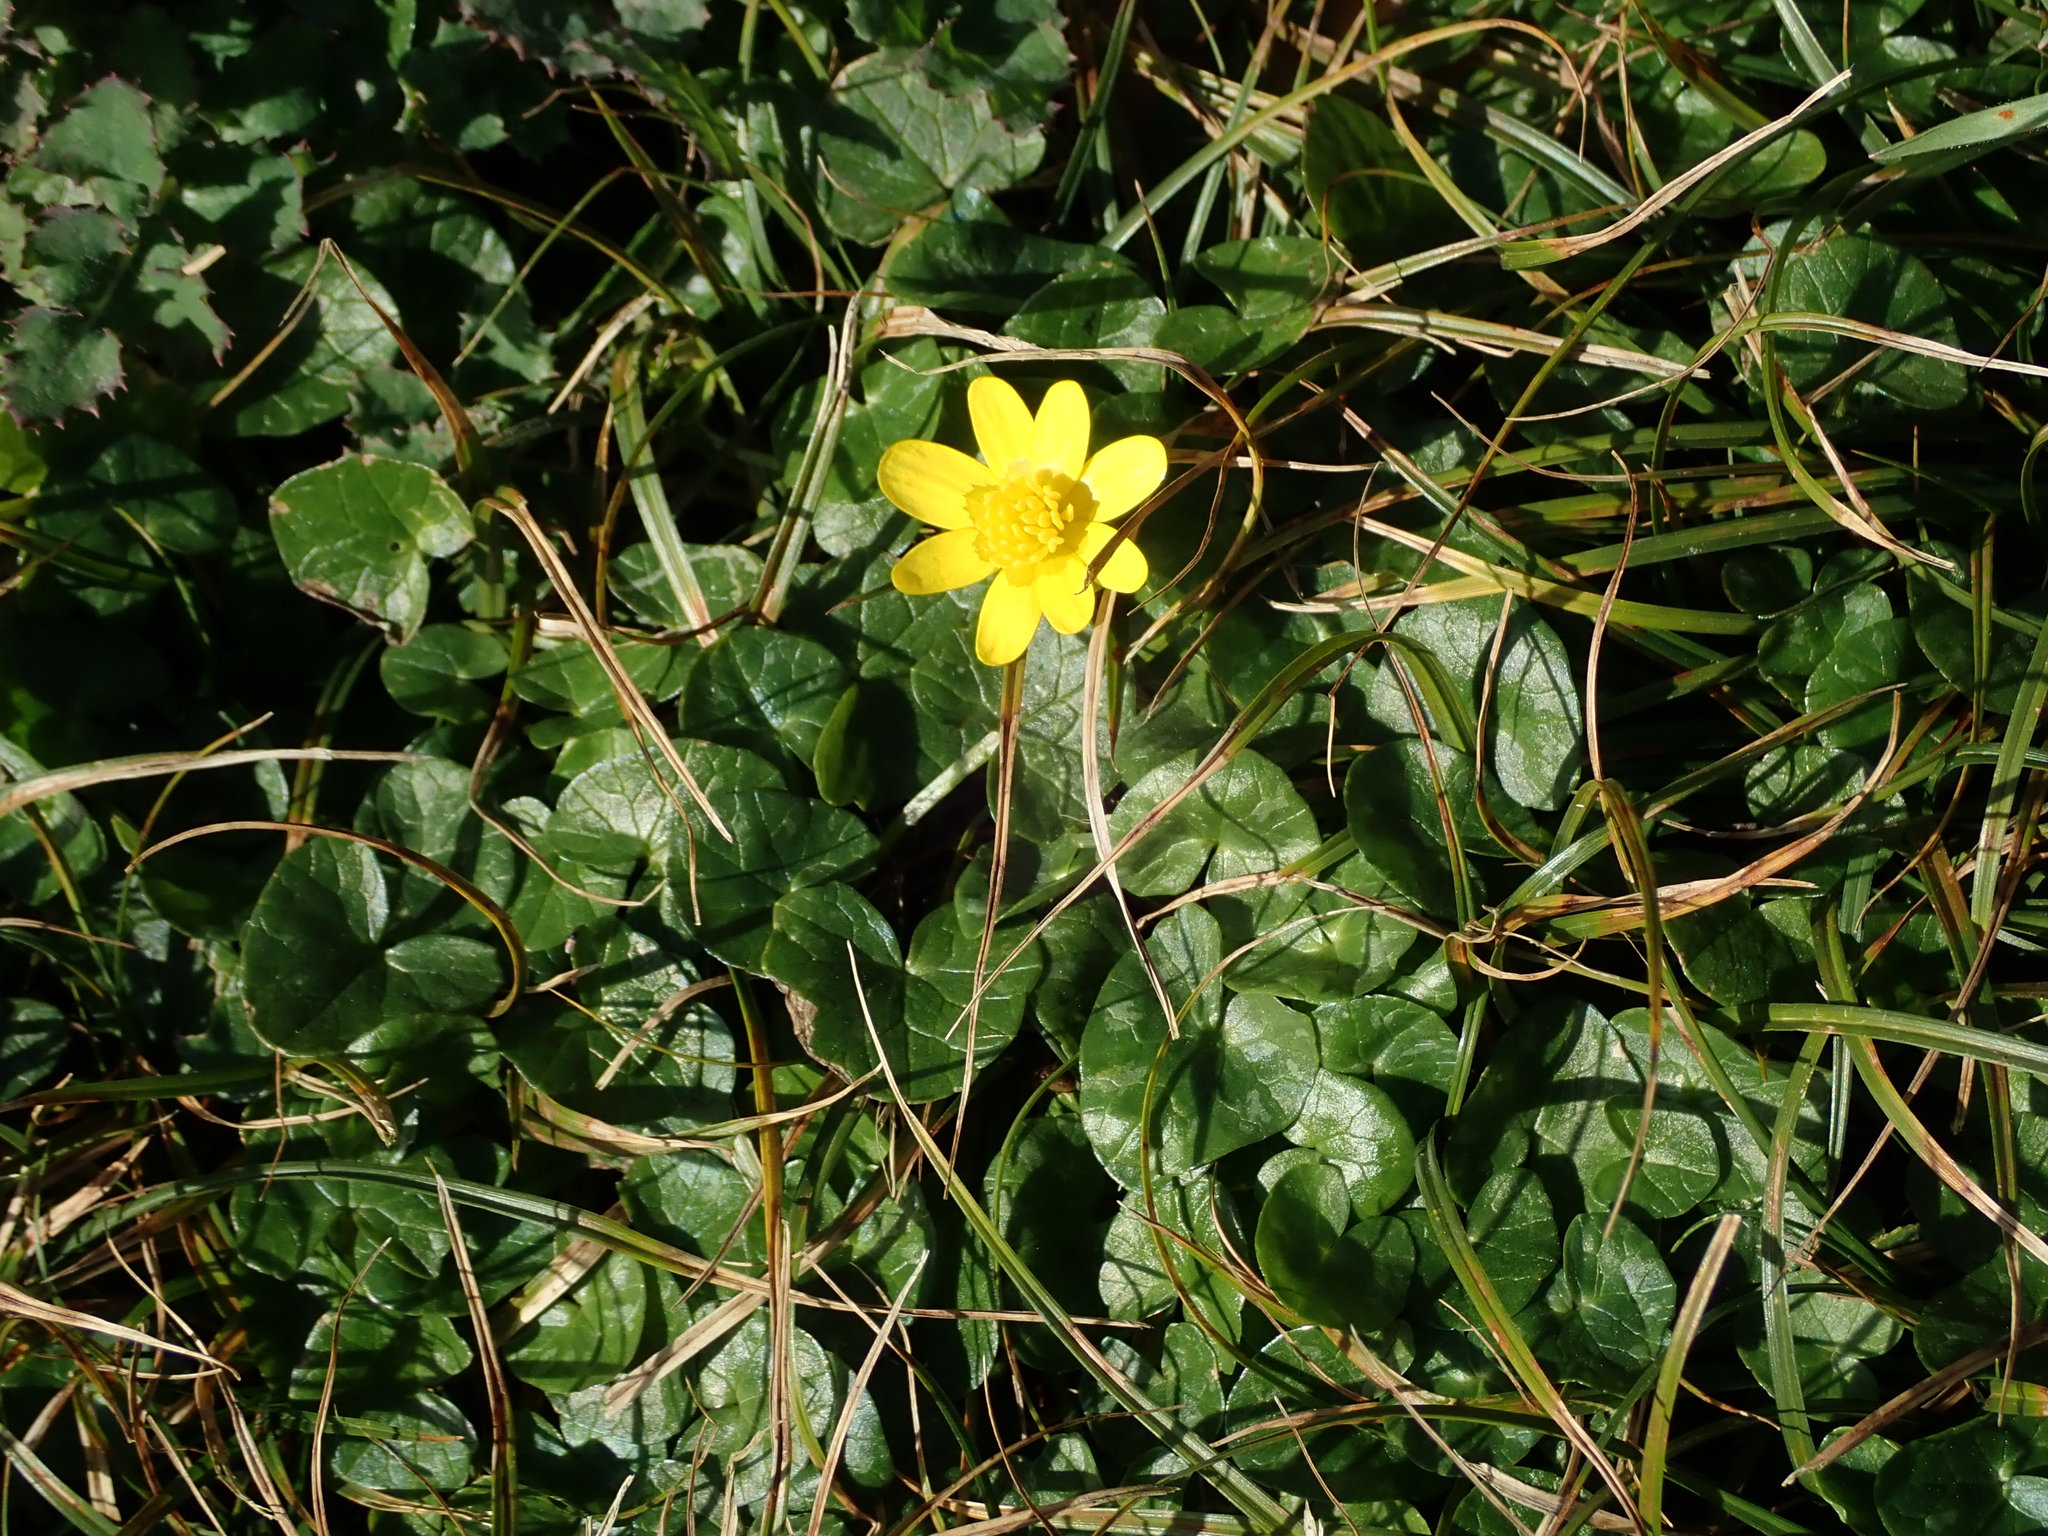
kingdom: Plantae
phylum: Tracheophyta
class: Magnoliopsida
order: Ranunculales
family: Ranunculaceae
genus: Ficaria
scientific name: Ficaria verna
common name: Lesser celandine
